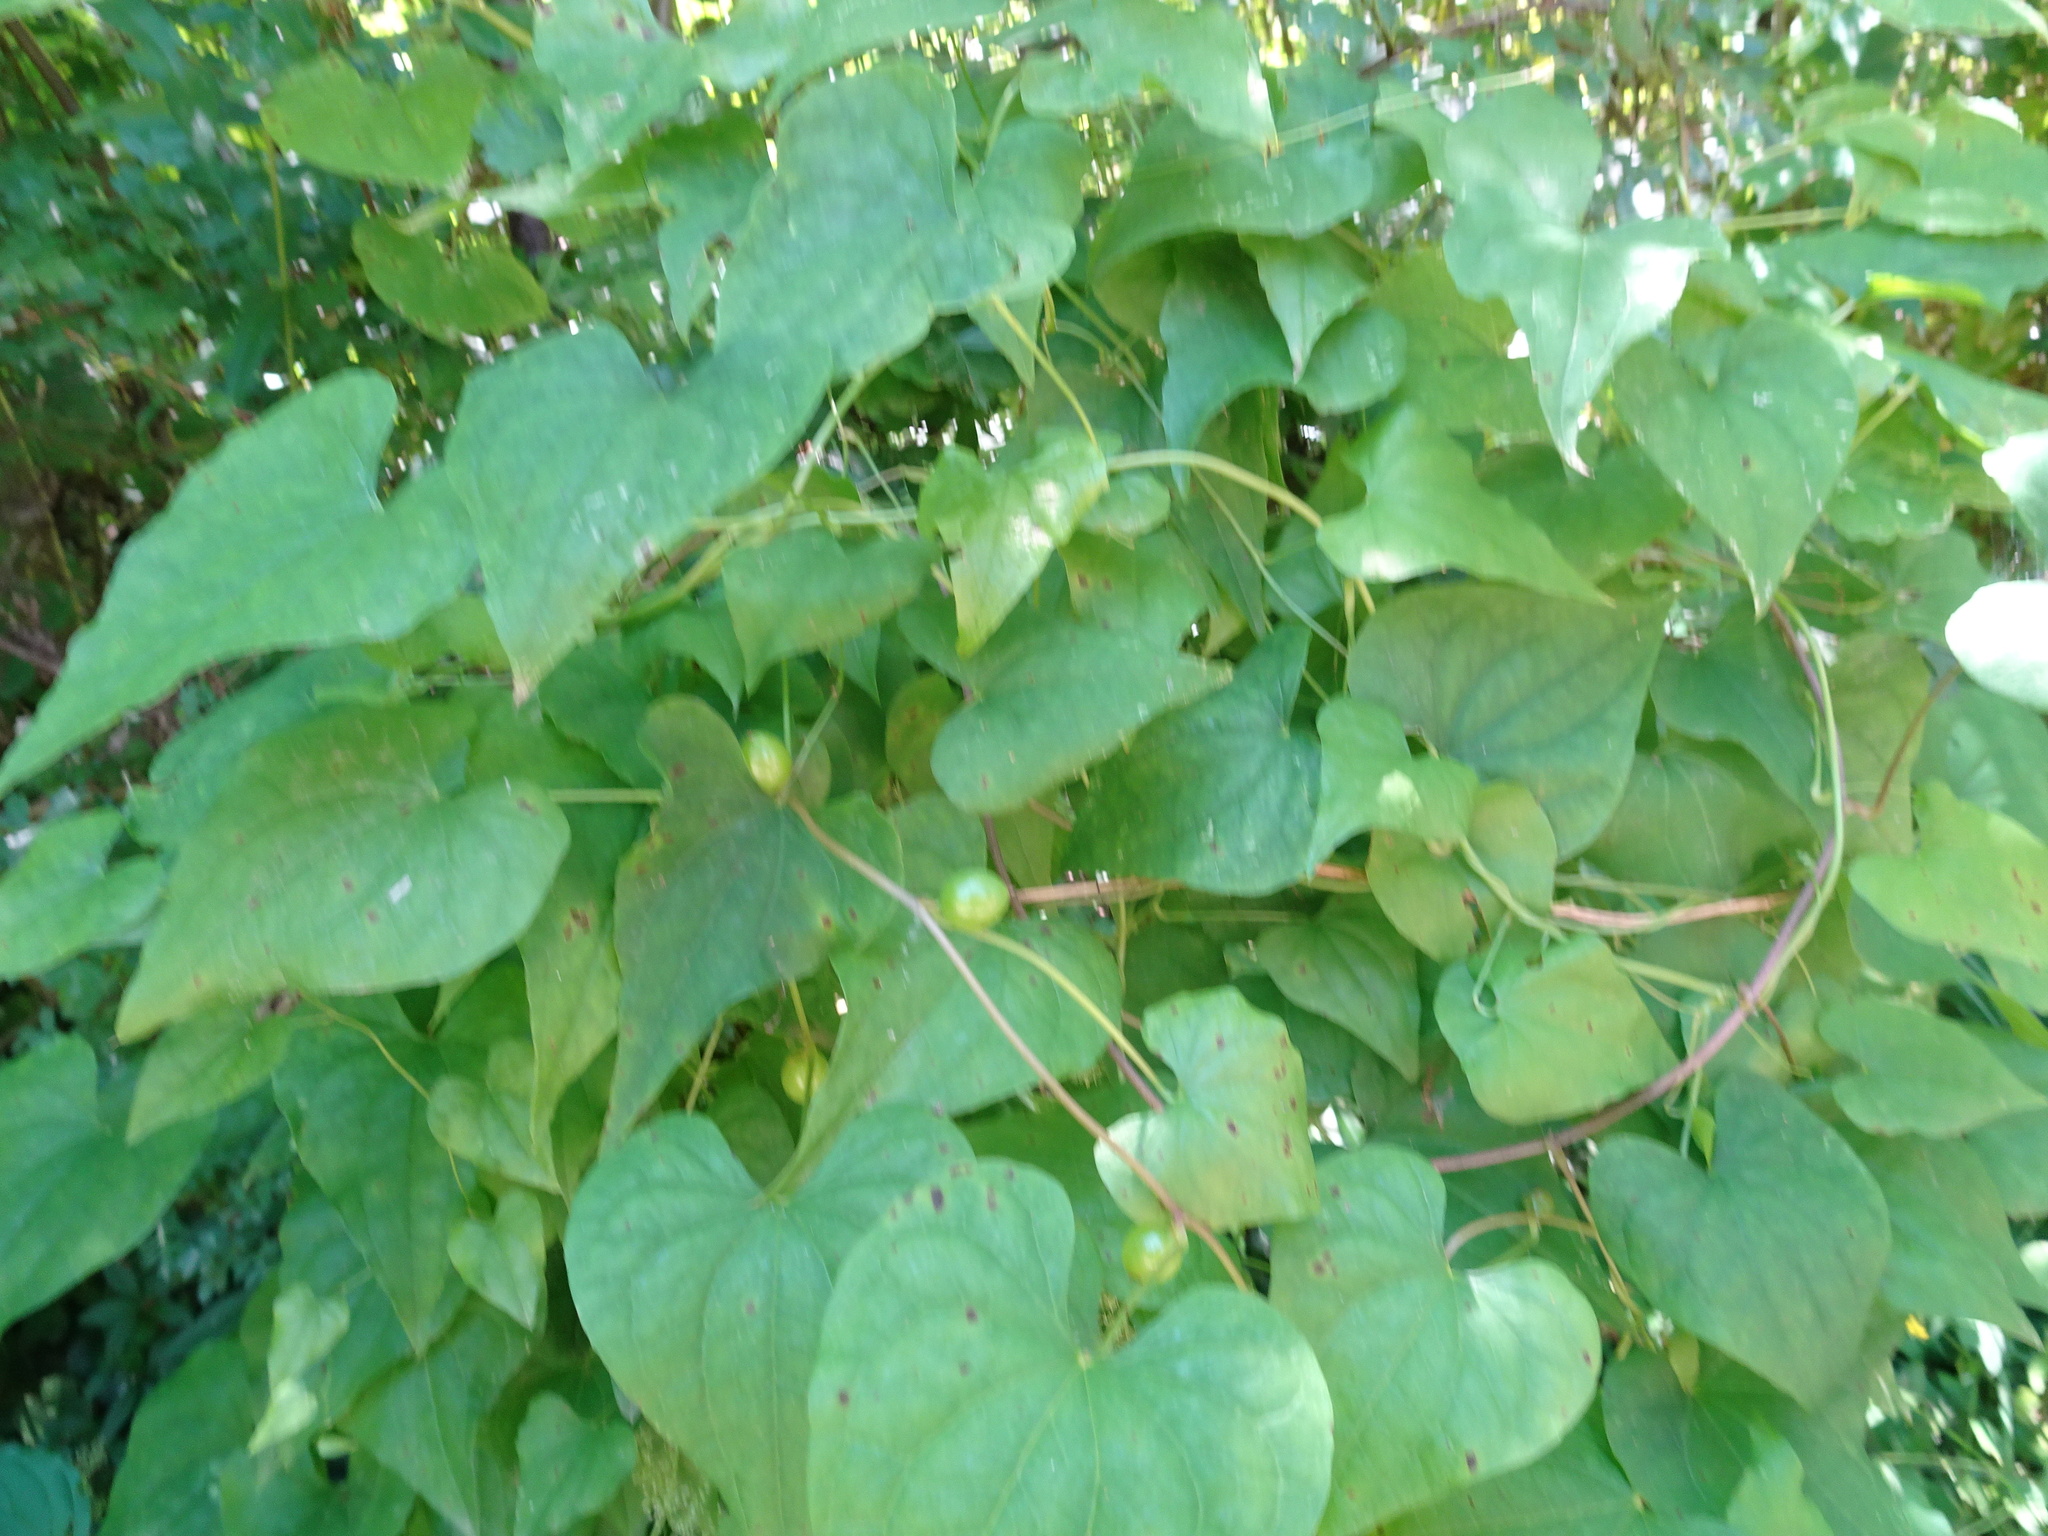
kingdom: Plantae
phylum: Tracheophyta
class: Liliopsida
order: Dioscoreales
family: Dioscoreaceae
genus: Dioscorea
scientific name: Dioscorea communis
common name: Black-bindweed
